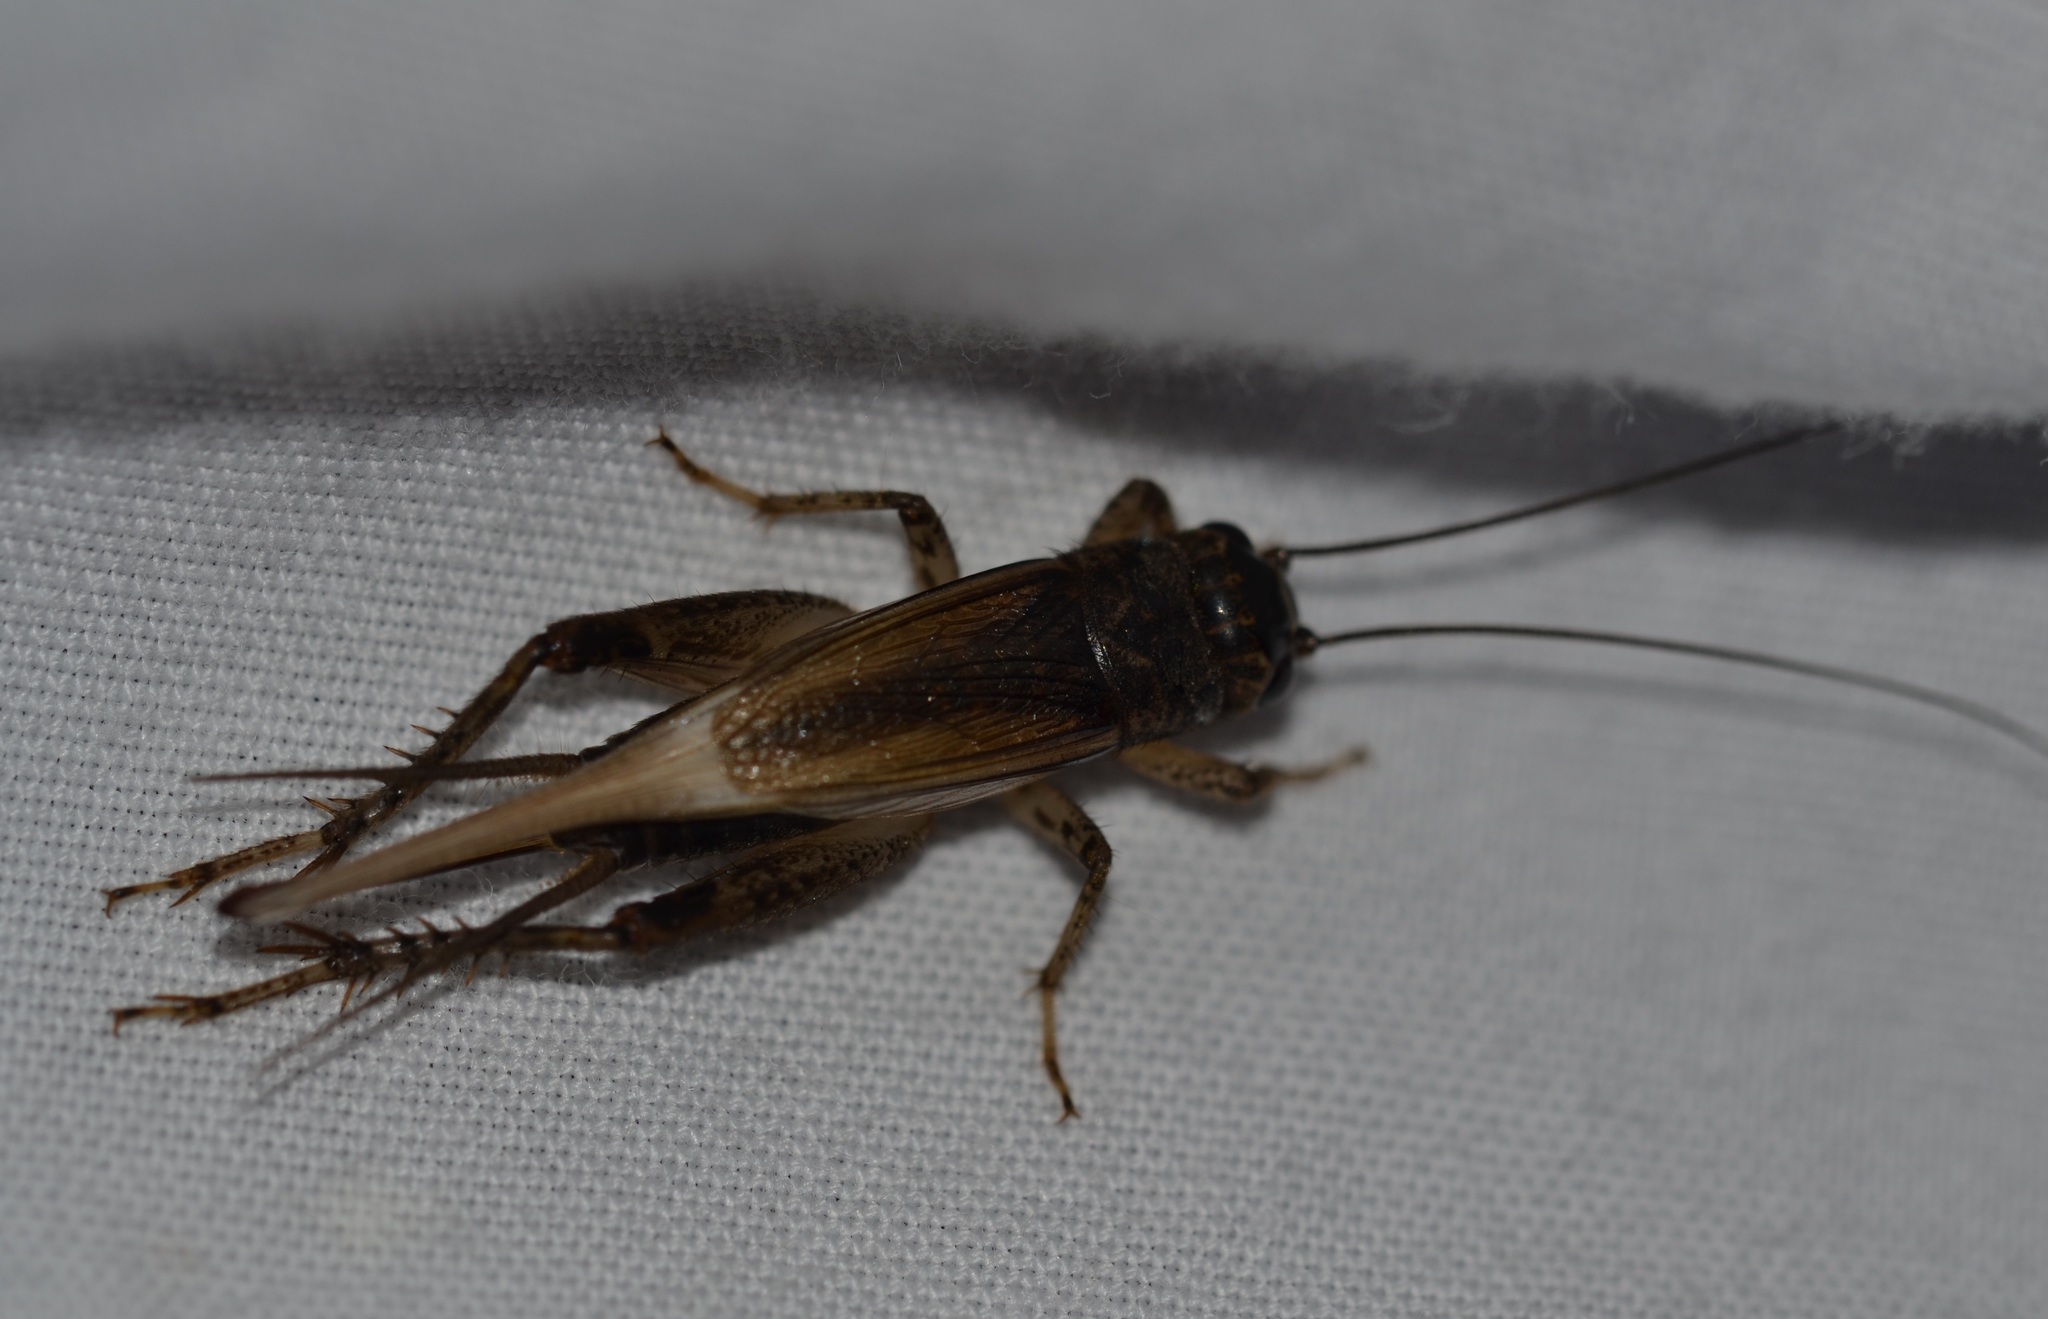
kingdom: Animalia
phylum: Arthropoda
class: Insecta
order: Orthoptera
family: Gryllidae
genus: Teleogryllus
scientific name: Teleogryllus oceanicus
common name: Oceanic field cricket
